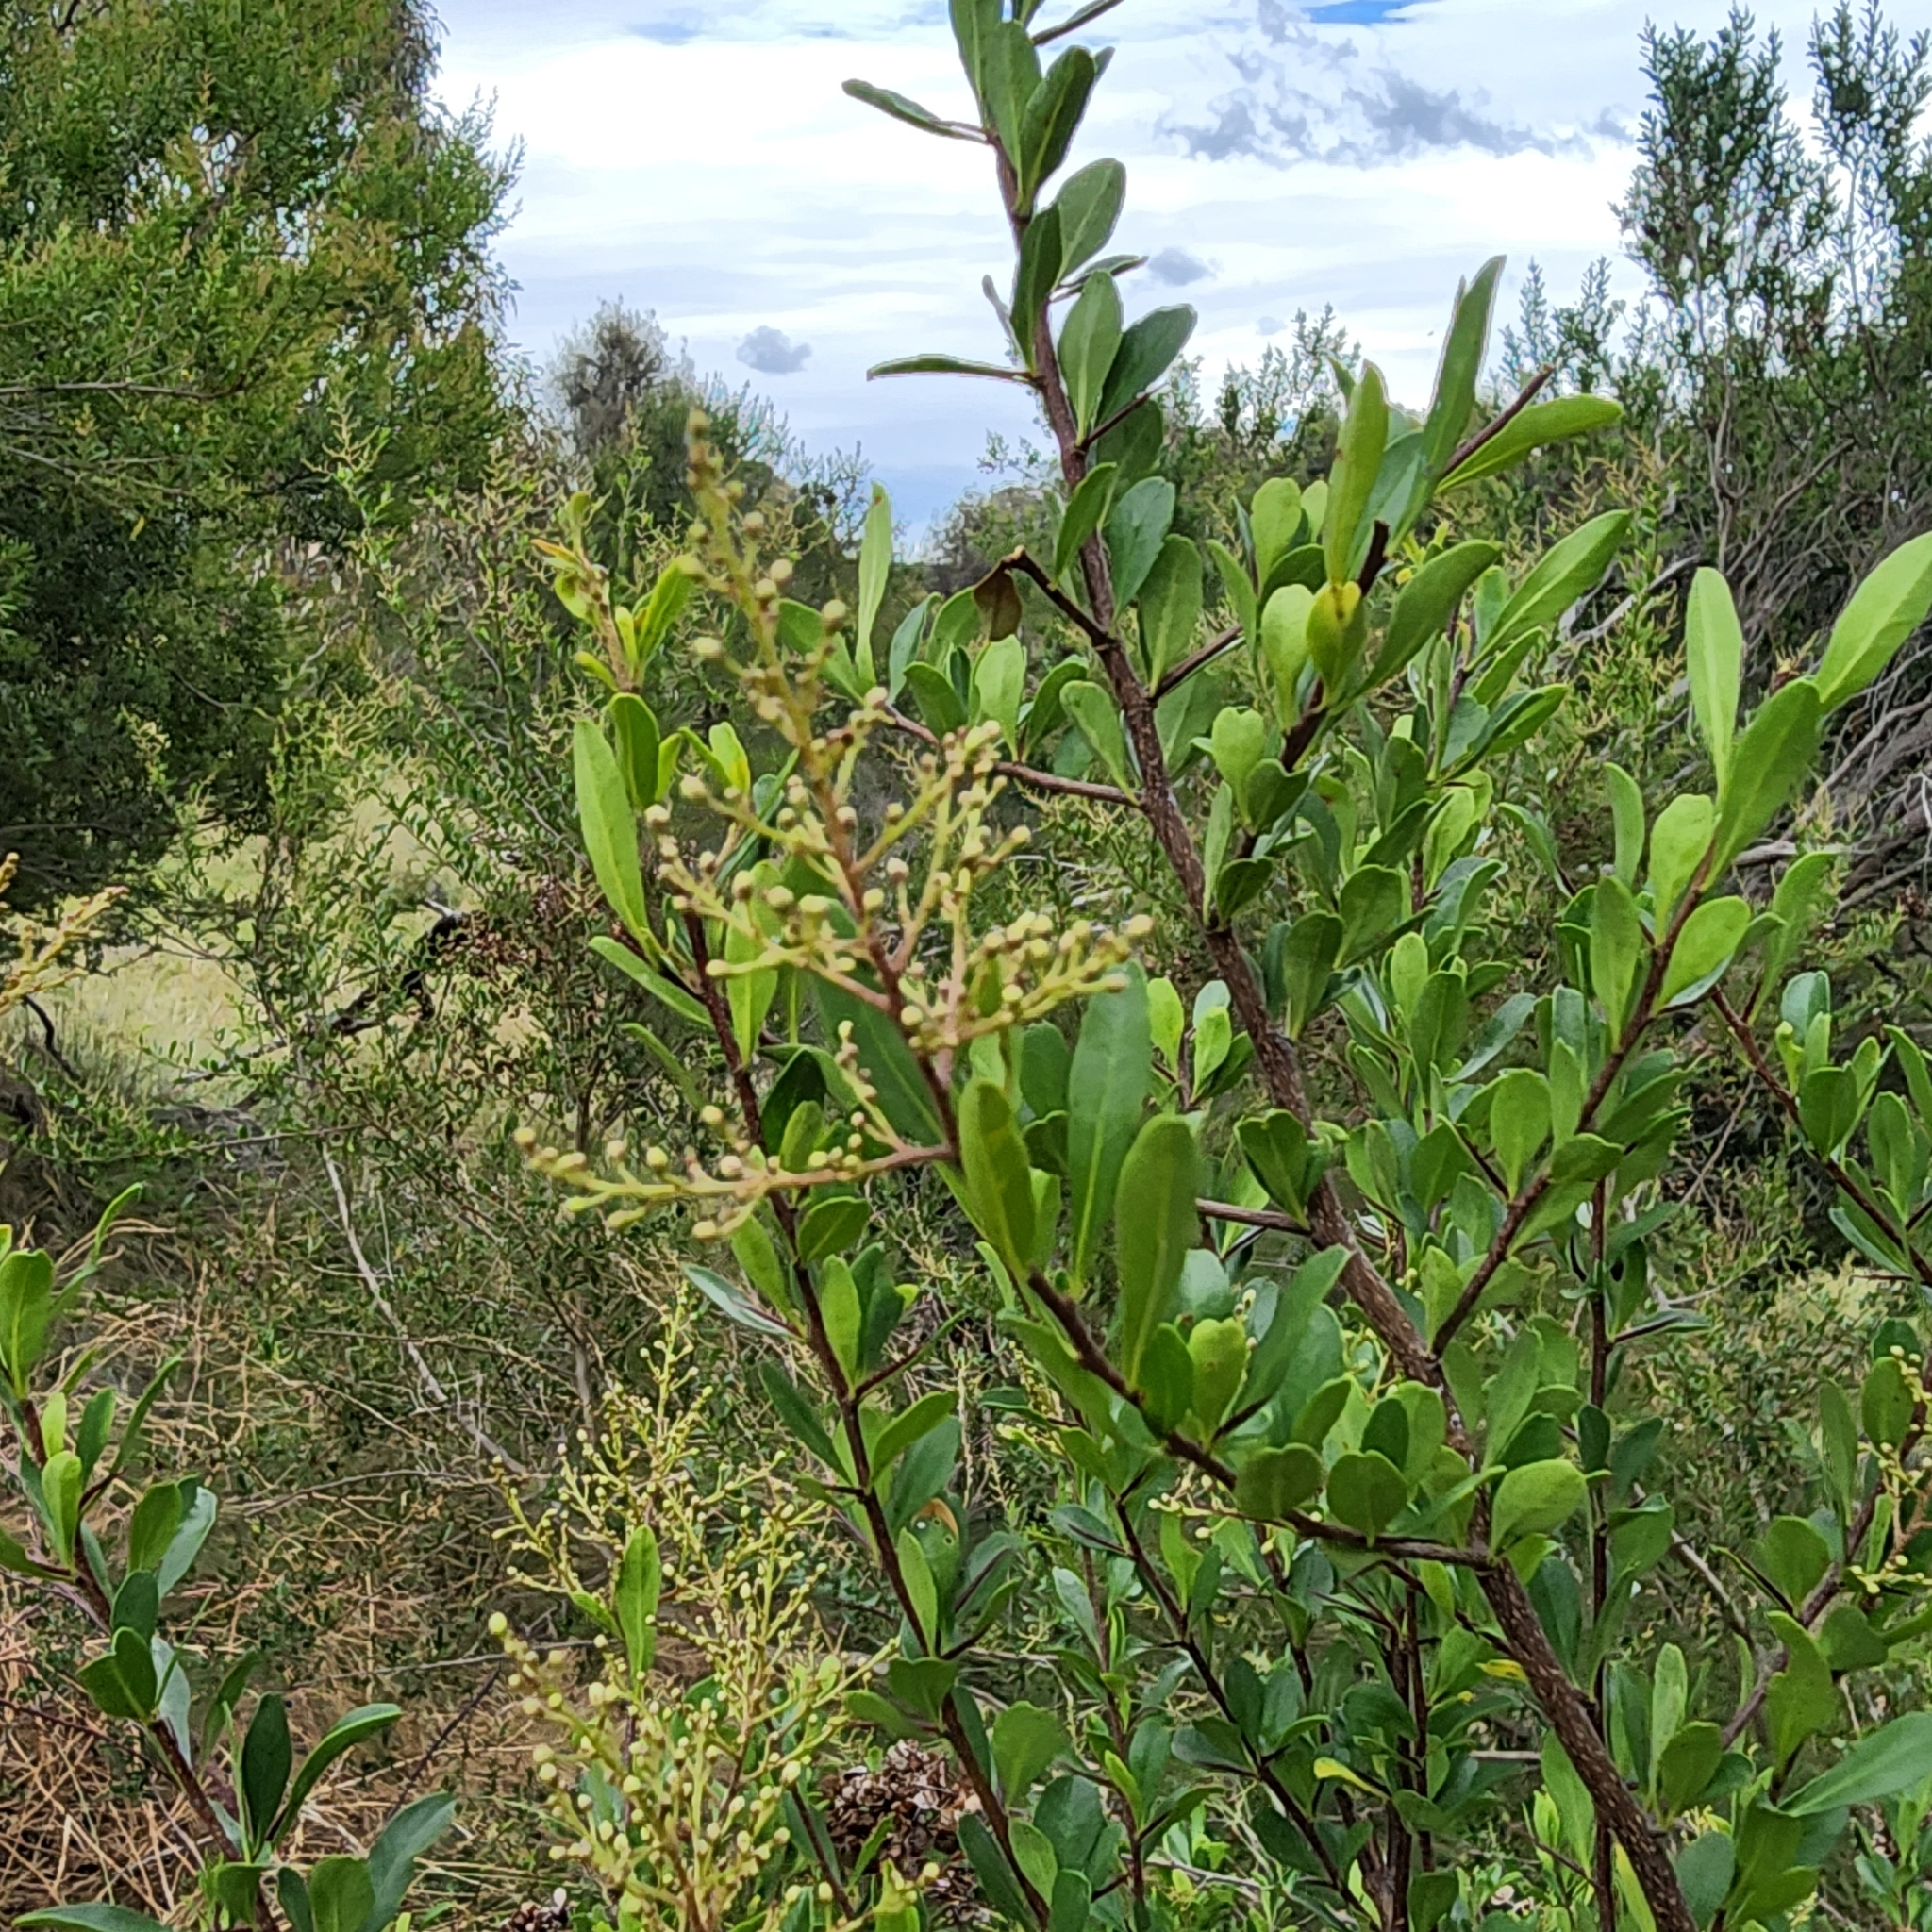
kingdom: Plantae
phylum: Tracheophyta
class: Magnoliopsida
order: Apiales
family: Pittosporaceae
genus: Bursaria
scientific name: Bursaria spinosa
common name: Australian blackthorn
